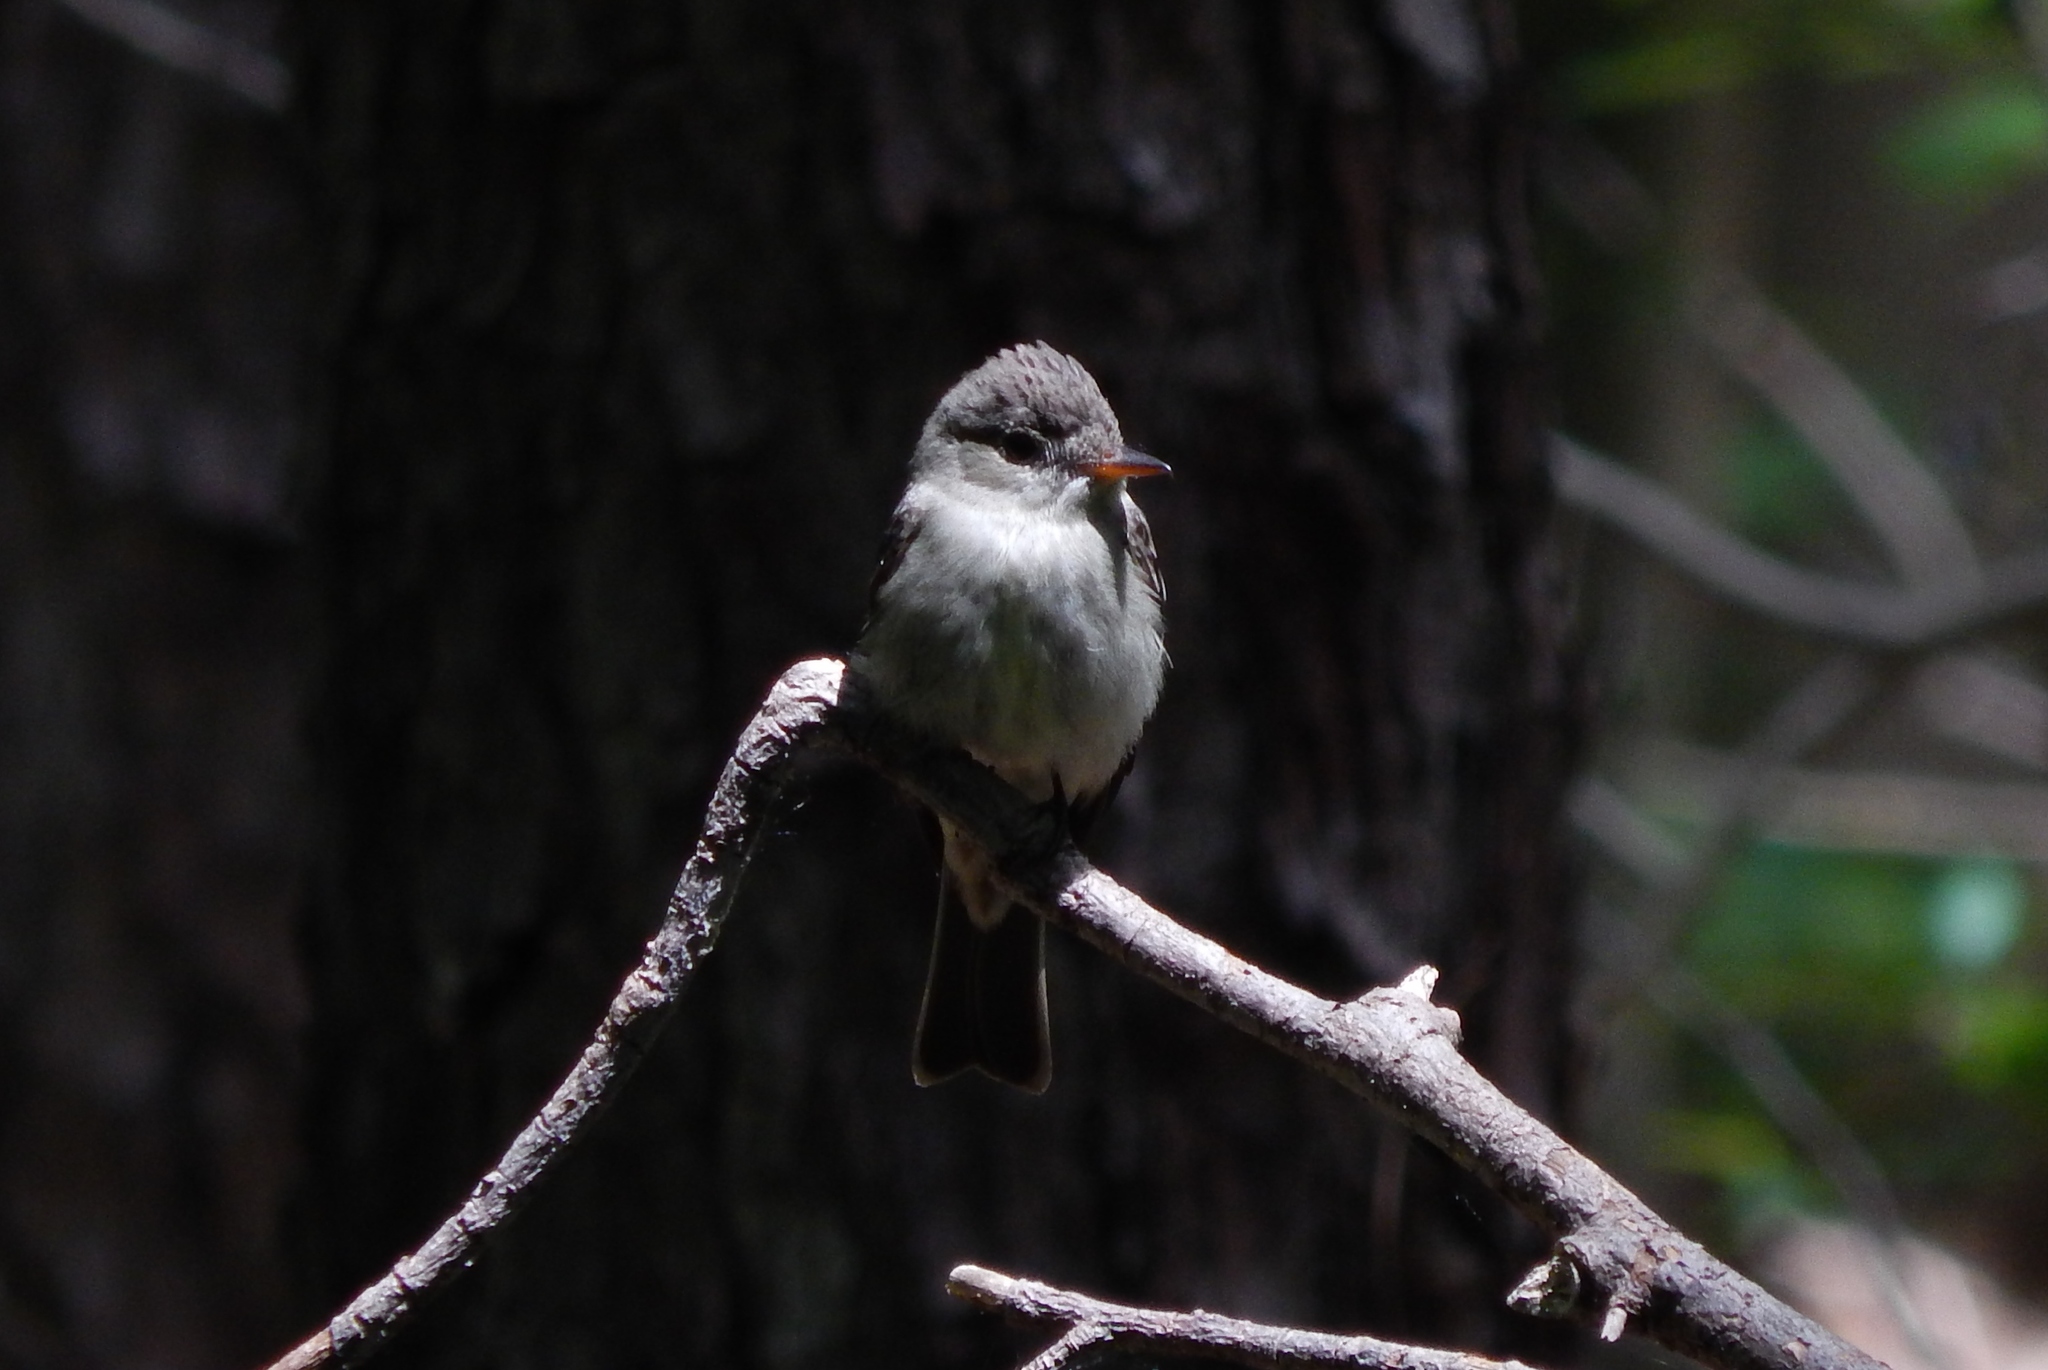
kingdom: Animalia
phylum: Chordata
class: Aves
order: Passeriformes
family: Tyrannidae
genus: Contopus
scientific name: Contopus virens
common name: Eastern wood-pewee
